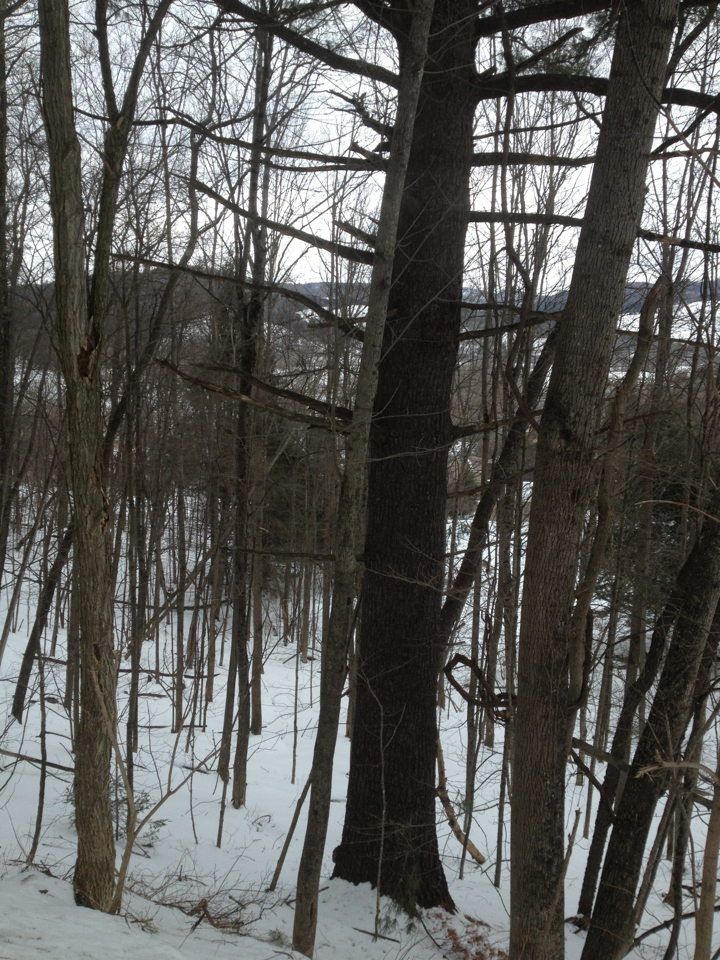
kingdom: Plantae
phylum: Tracheophyta
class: Pinopsida
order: Pinales
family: Pinaceae
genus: Pinus
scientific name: Pinus strobus
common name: Weymouth pine
